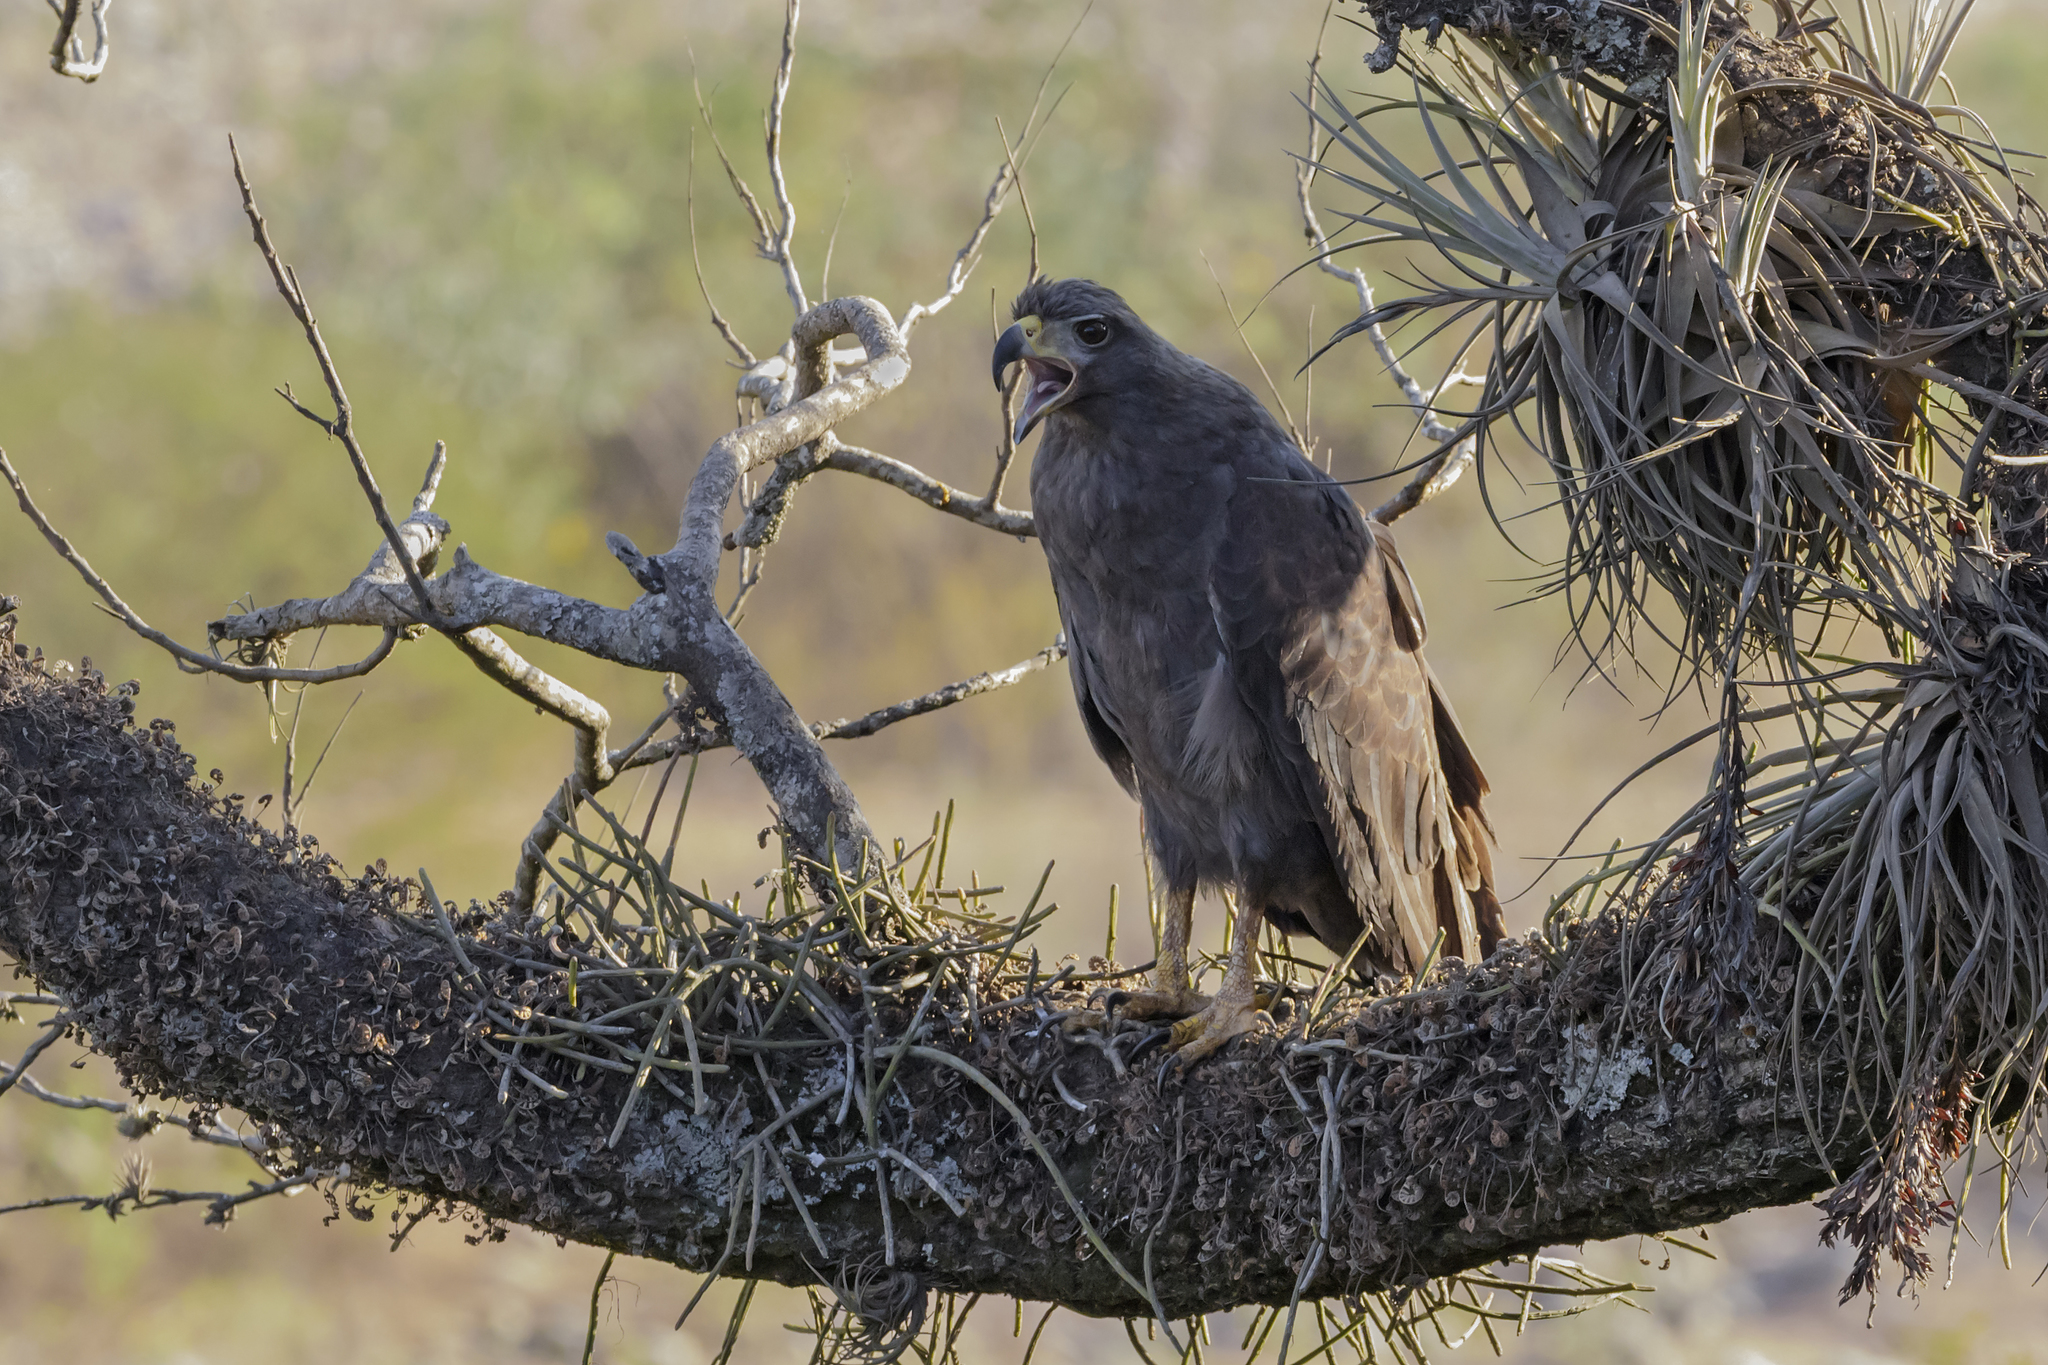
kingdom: Animalia
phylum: Chordata
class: Aves
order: Accipitriformes
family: Accipitridae
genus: Harpyhaliaetus
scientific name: Harpyhaliaetus solitarius
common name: Solitary eagle
